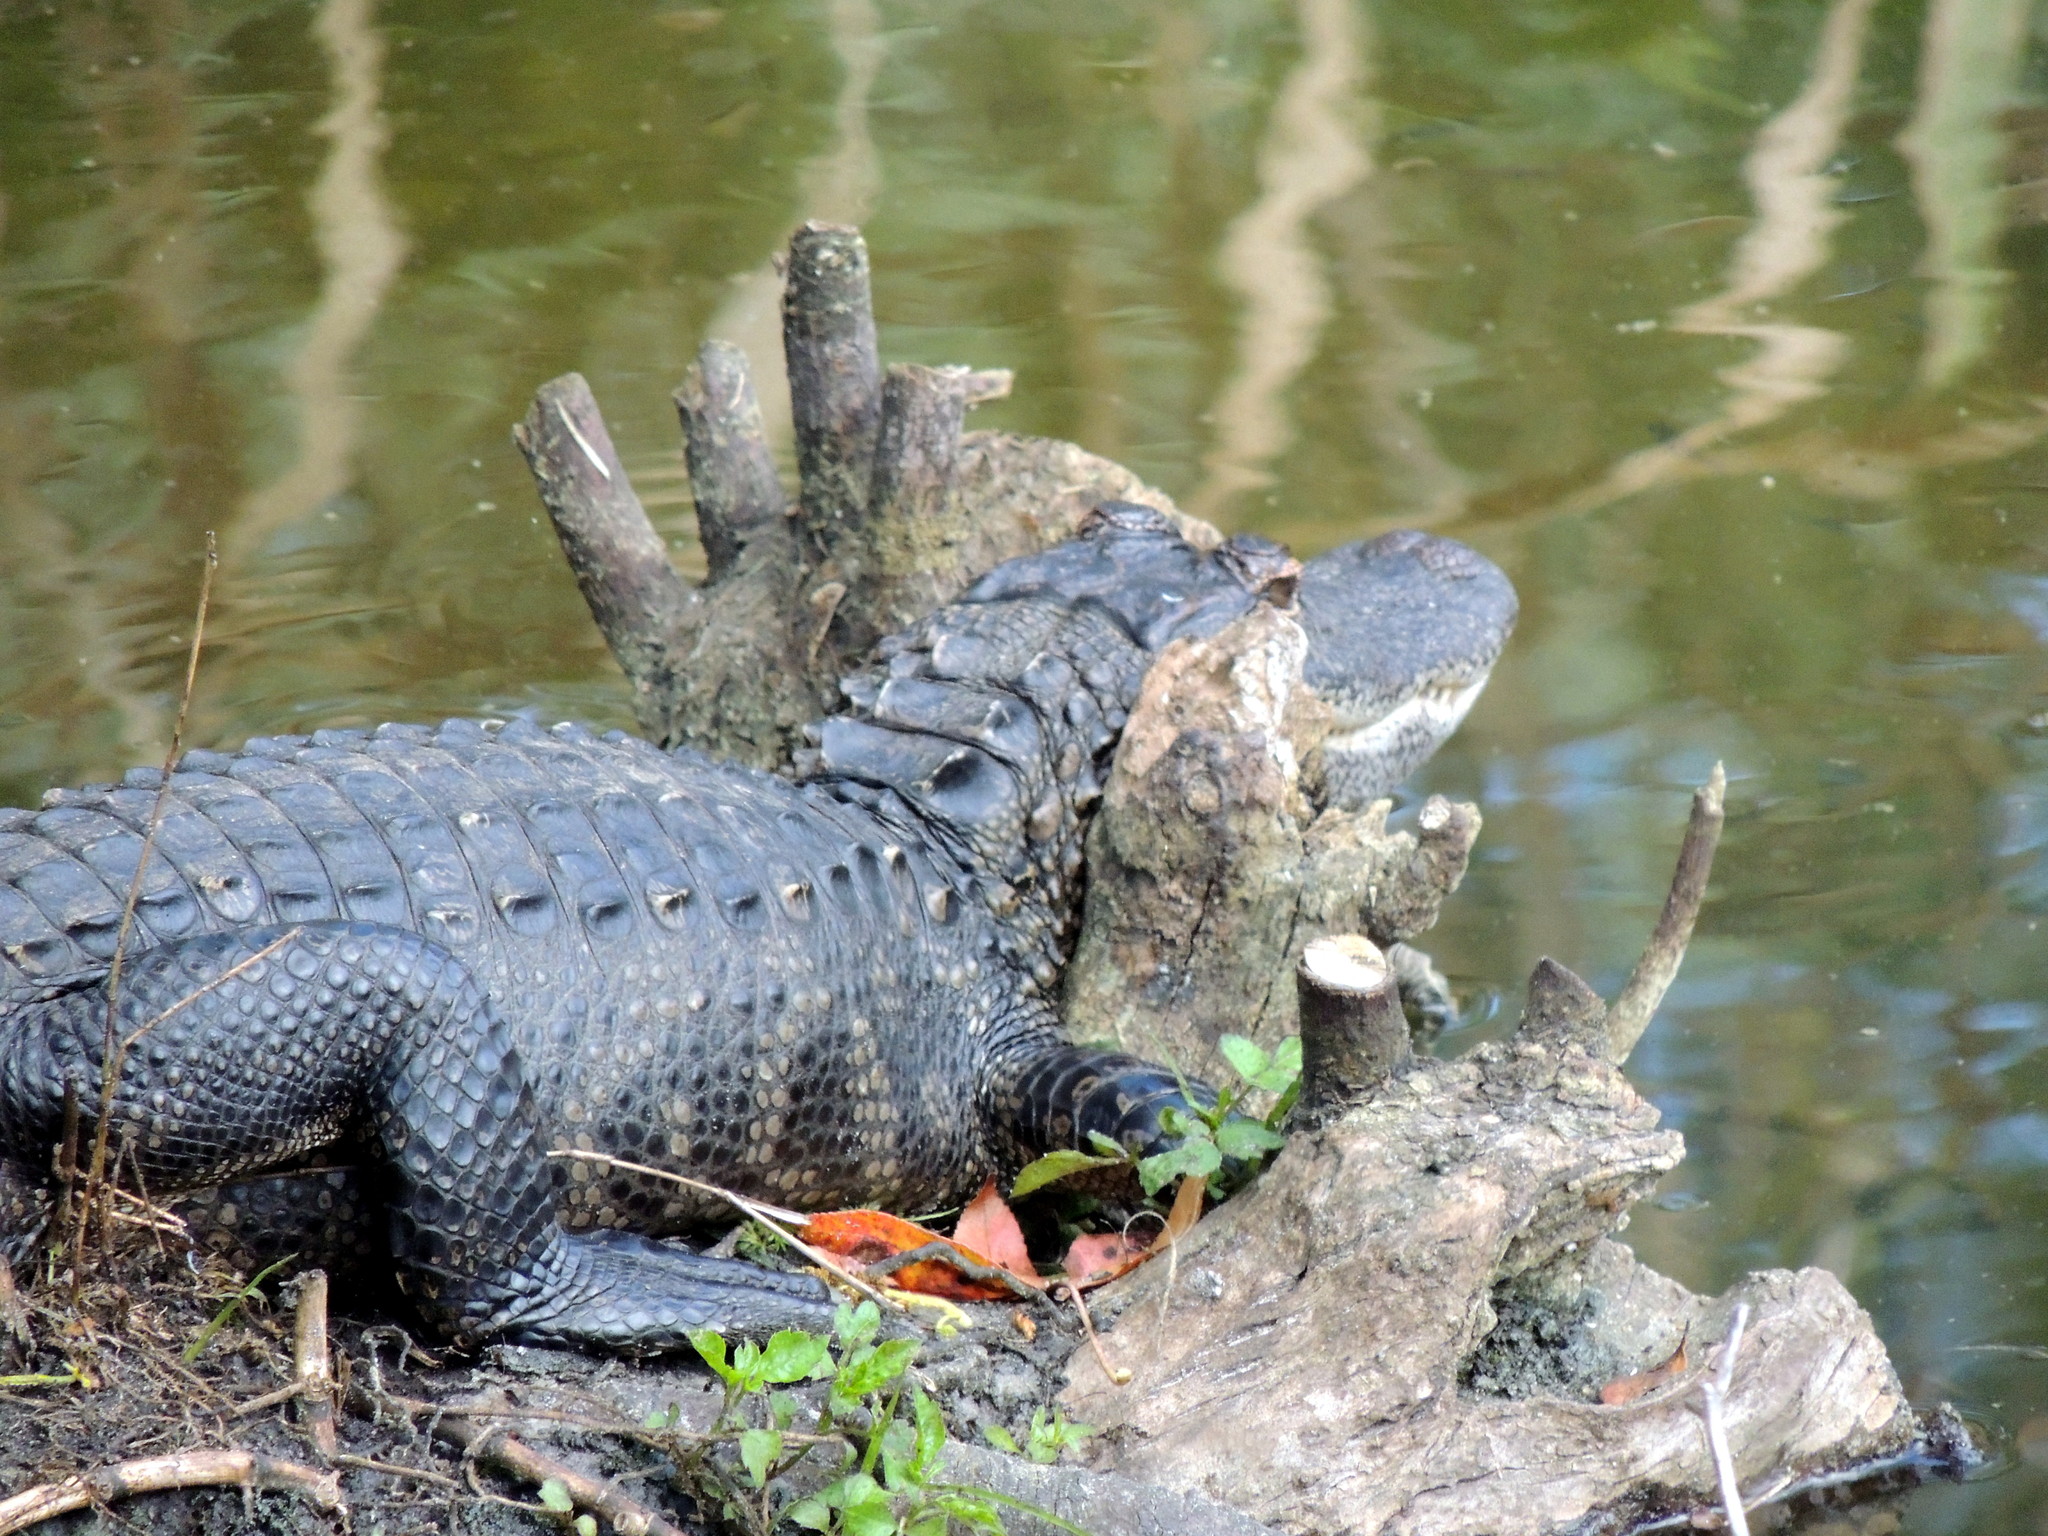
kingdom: Animalia
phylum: Chordata
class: Crocodylia
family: Alligatoridae
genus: Alligator
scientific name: Alligator mississippiensis
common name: American alligator
